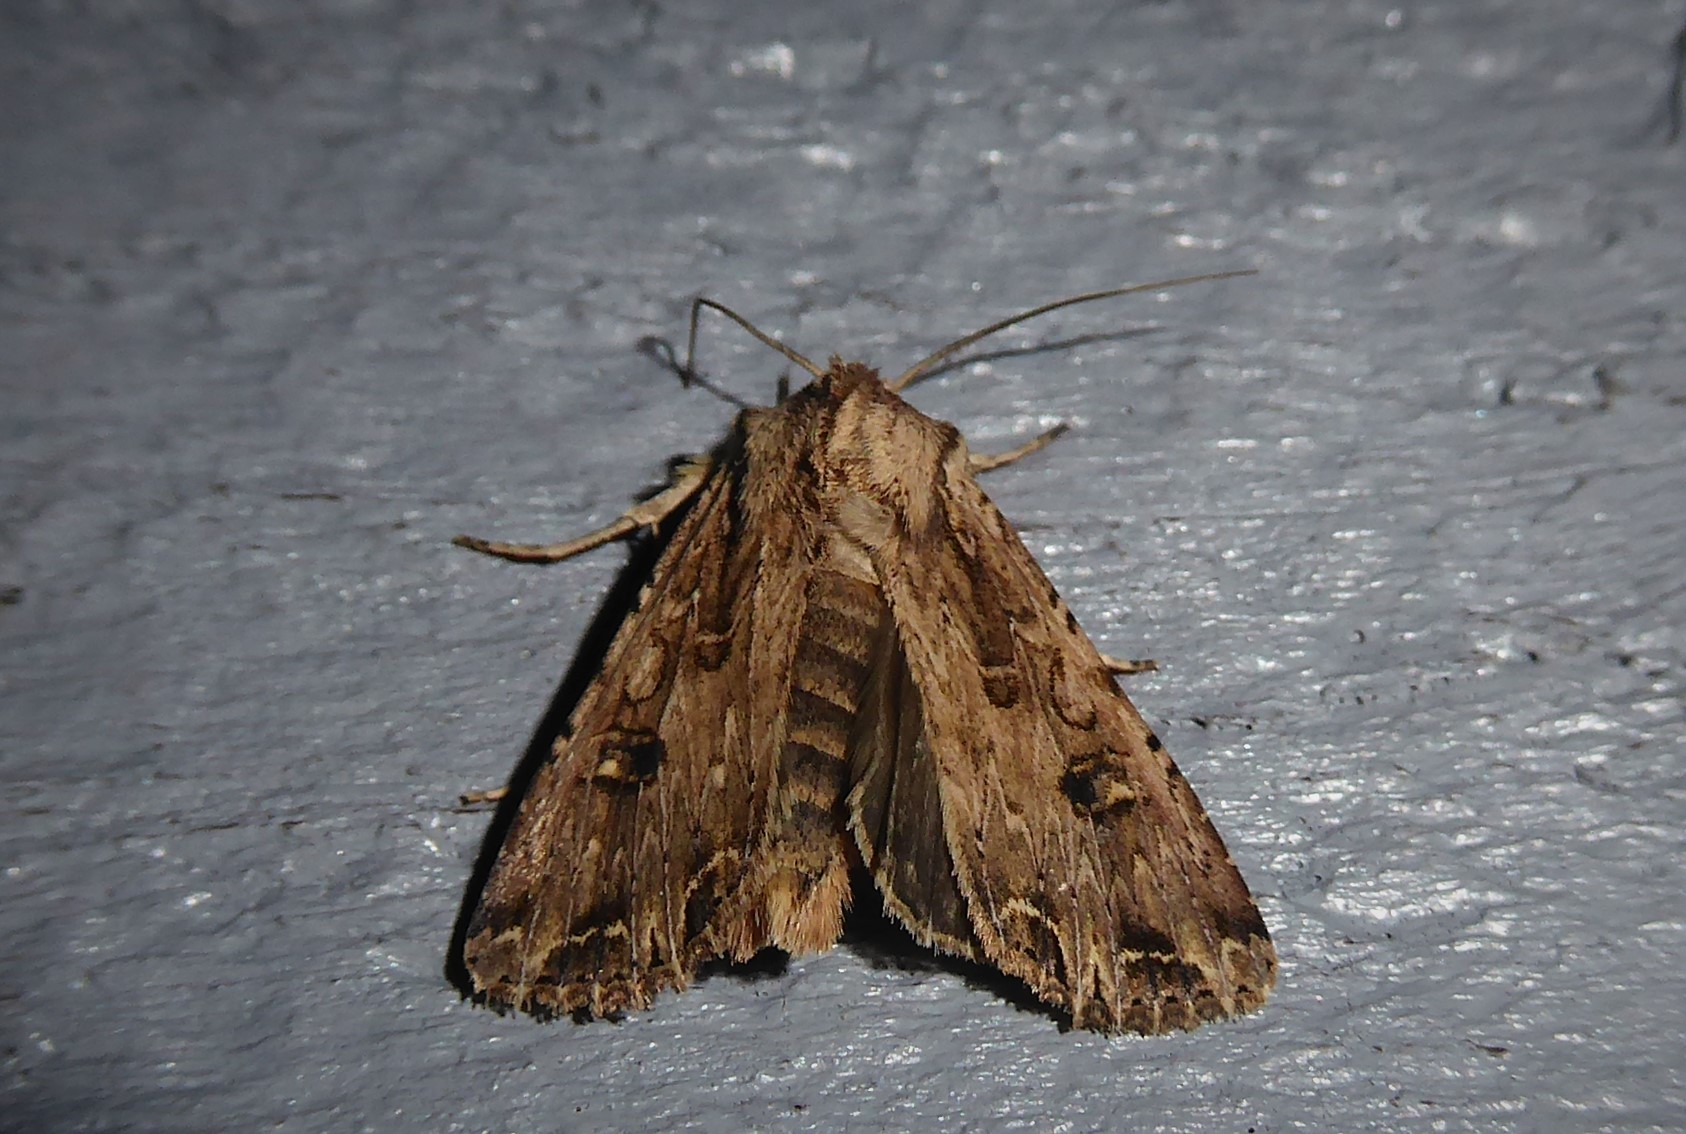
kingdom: Animalia
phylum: Arthropoda
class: Insecta
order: Lepidoptera
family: Noctuidae
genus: Ichneutica
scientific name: Ichneutica lignana
